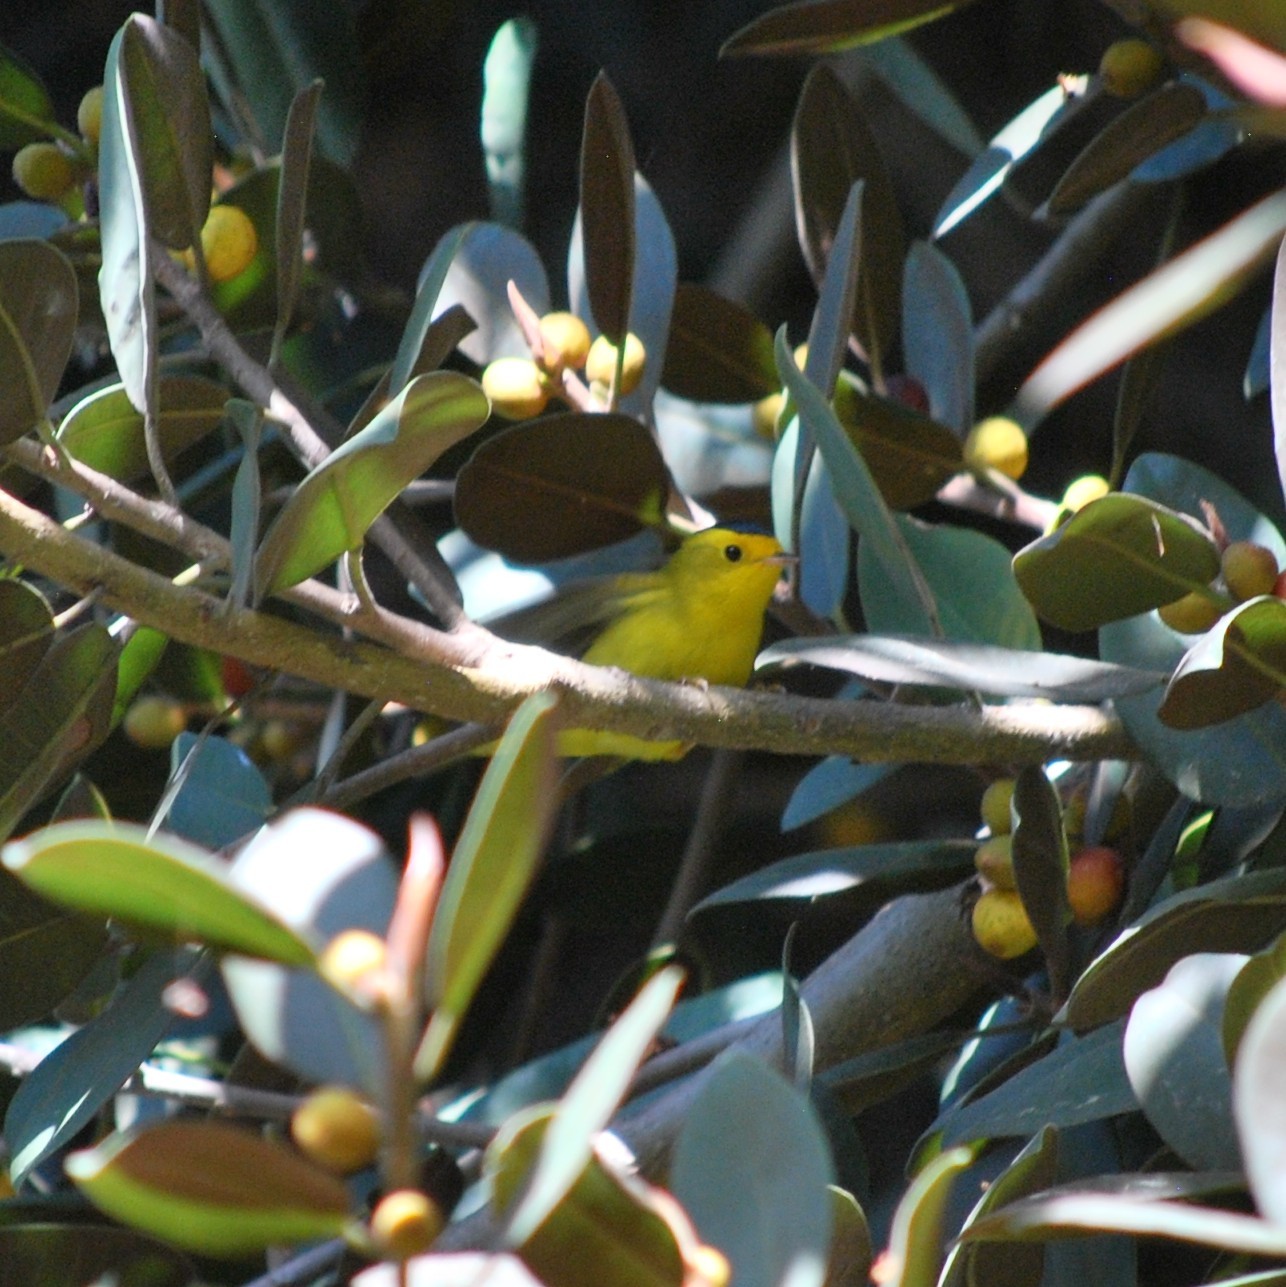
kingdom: Animalia
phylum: Chordata
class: Aves
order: Passeriformes
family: Parulidae
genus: Cardellina
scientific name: Cardellina pusilla
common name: Wilson's warbler
